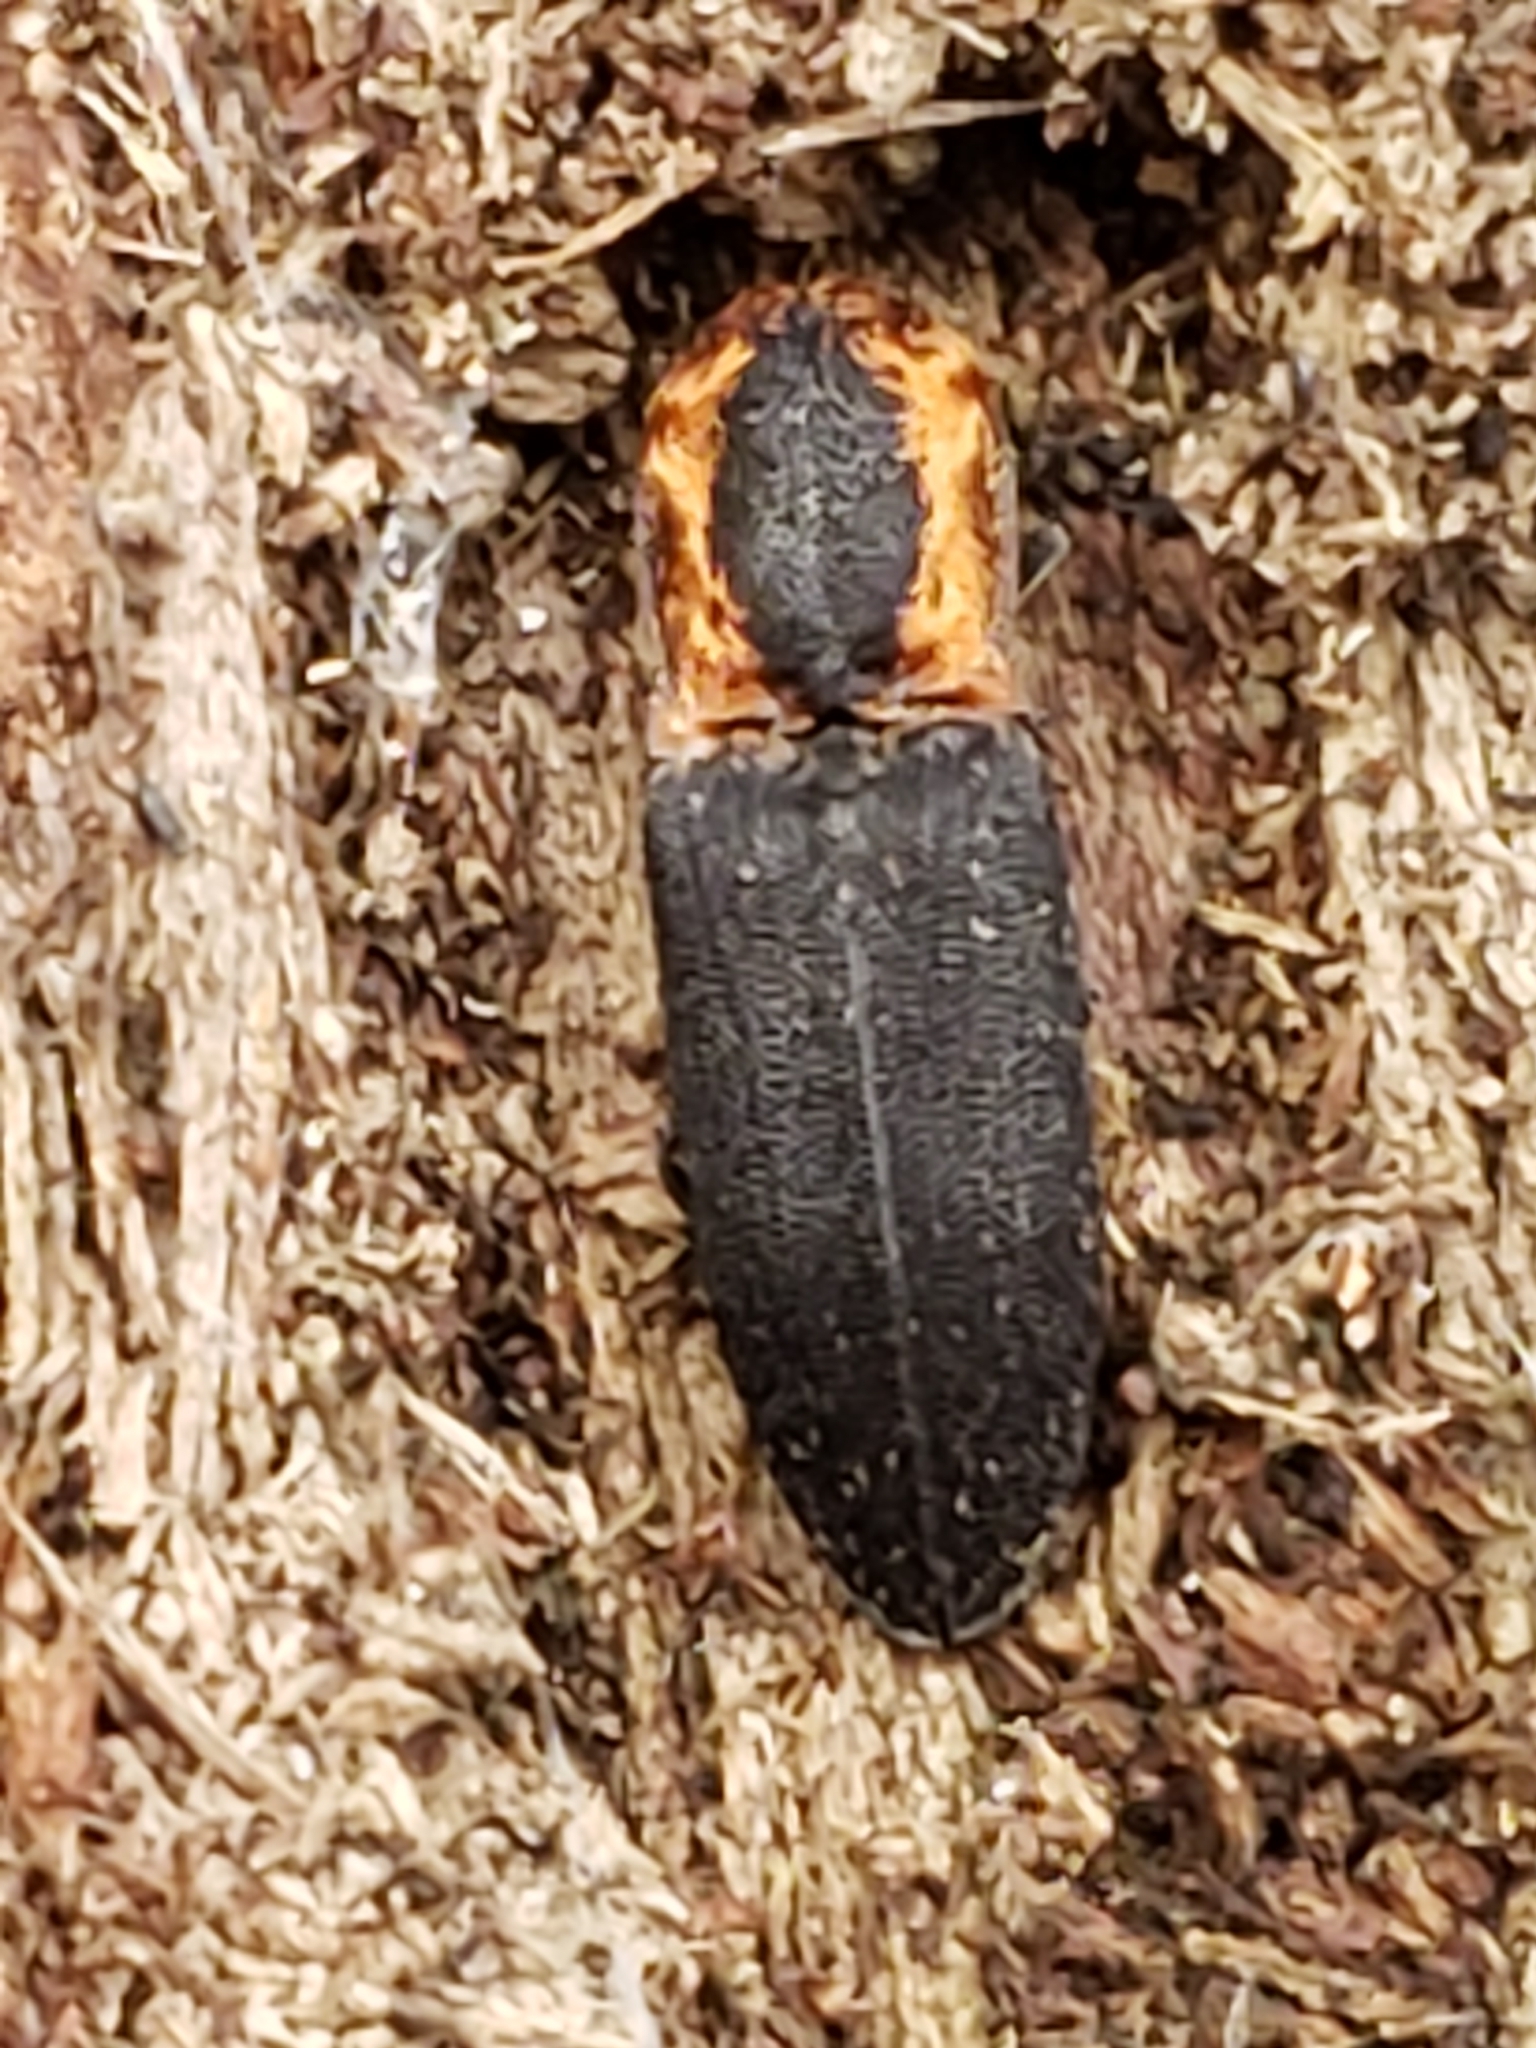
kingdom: Animalia
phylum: Arthropoda
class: Insecta
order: Coleoptera
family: Elateridae
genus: Lacon
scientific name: Lacon discoideus
